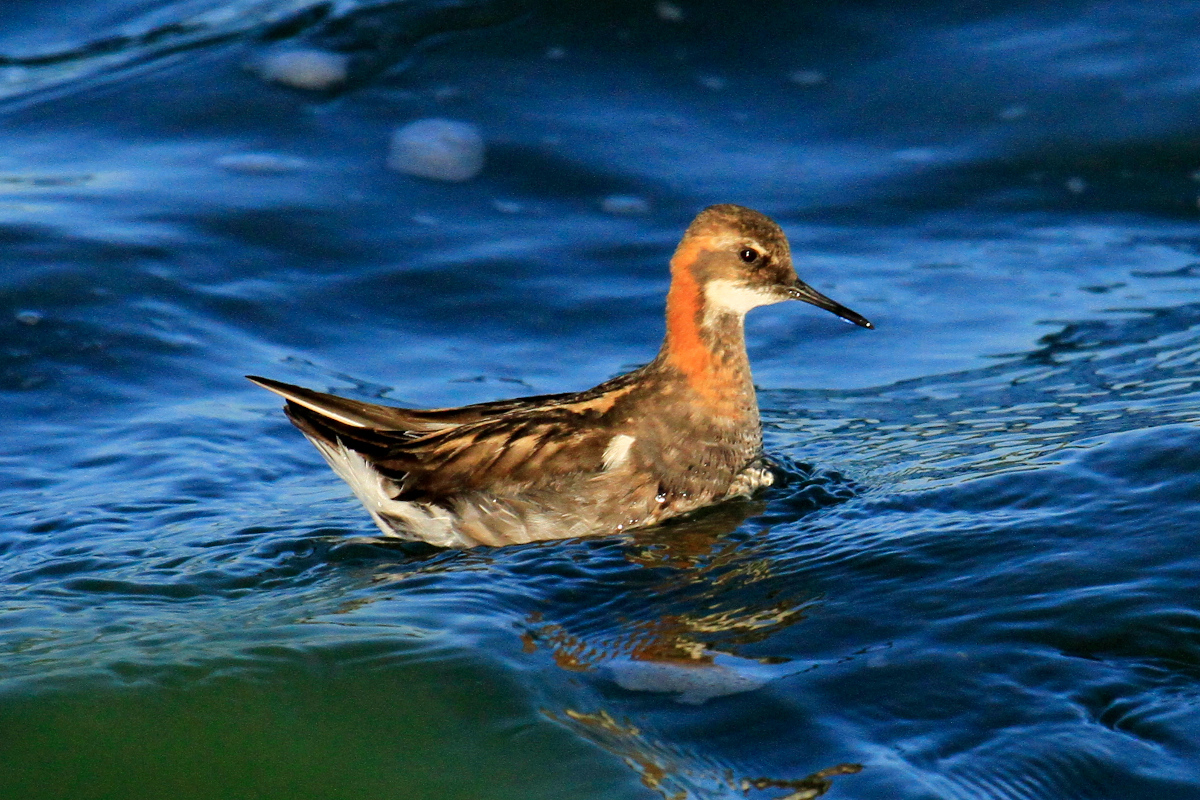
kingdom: Animalia
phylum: Chordata
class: Aves
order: Charadriiformes
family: Scolopacidae
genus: Phalaropus
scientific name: Phalaropus lobatus
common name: Red-necked phalarope
